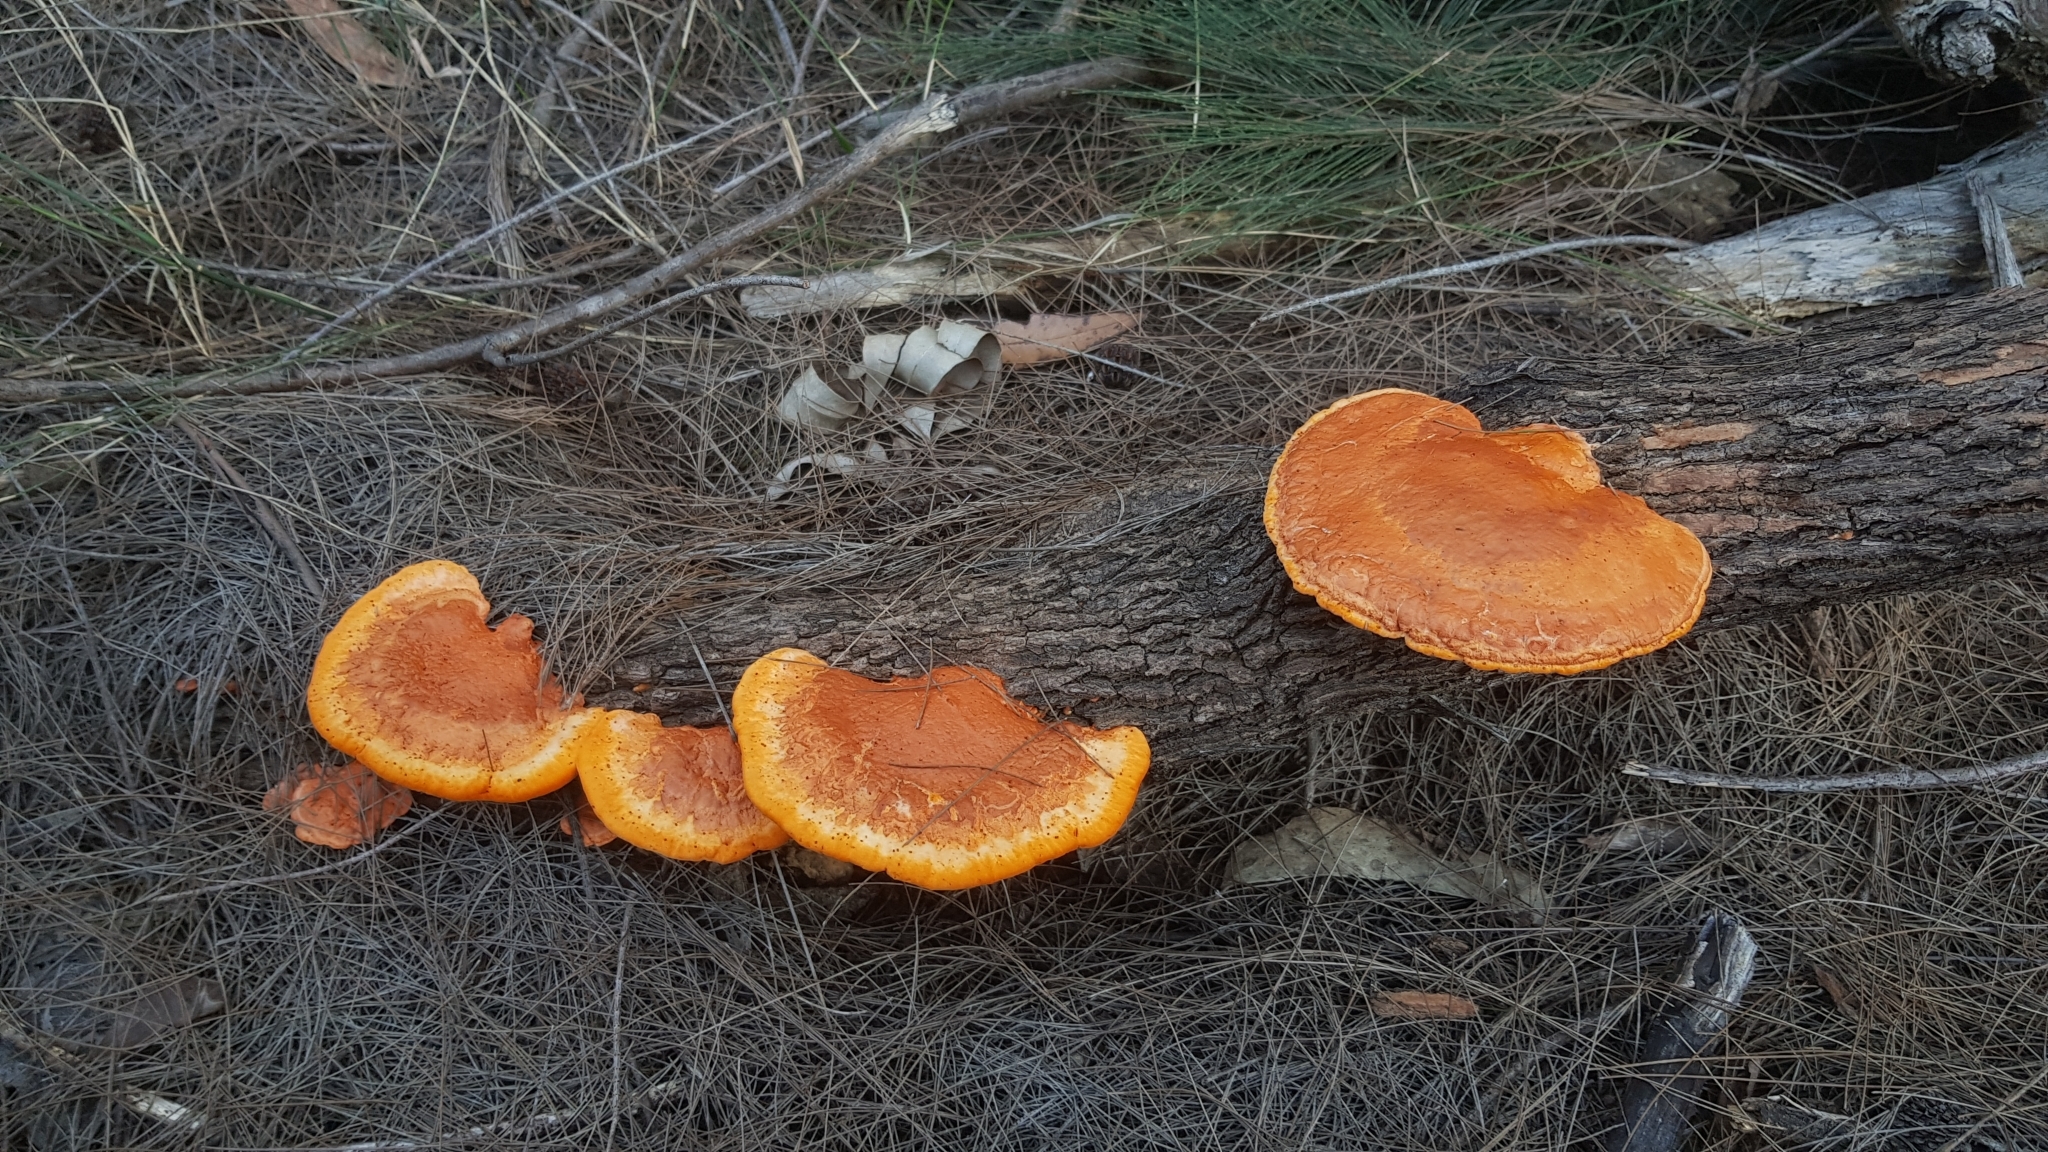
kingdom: Fungi
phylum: Basidiomycota
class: Agaricomycetes
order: Polyporales
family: Polyporaceae
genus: Trametes
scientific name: Trametes coccinea
